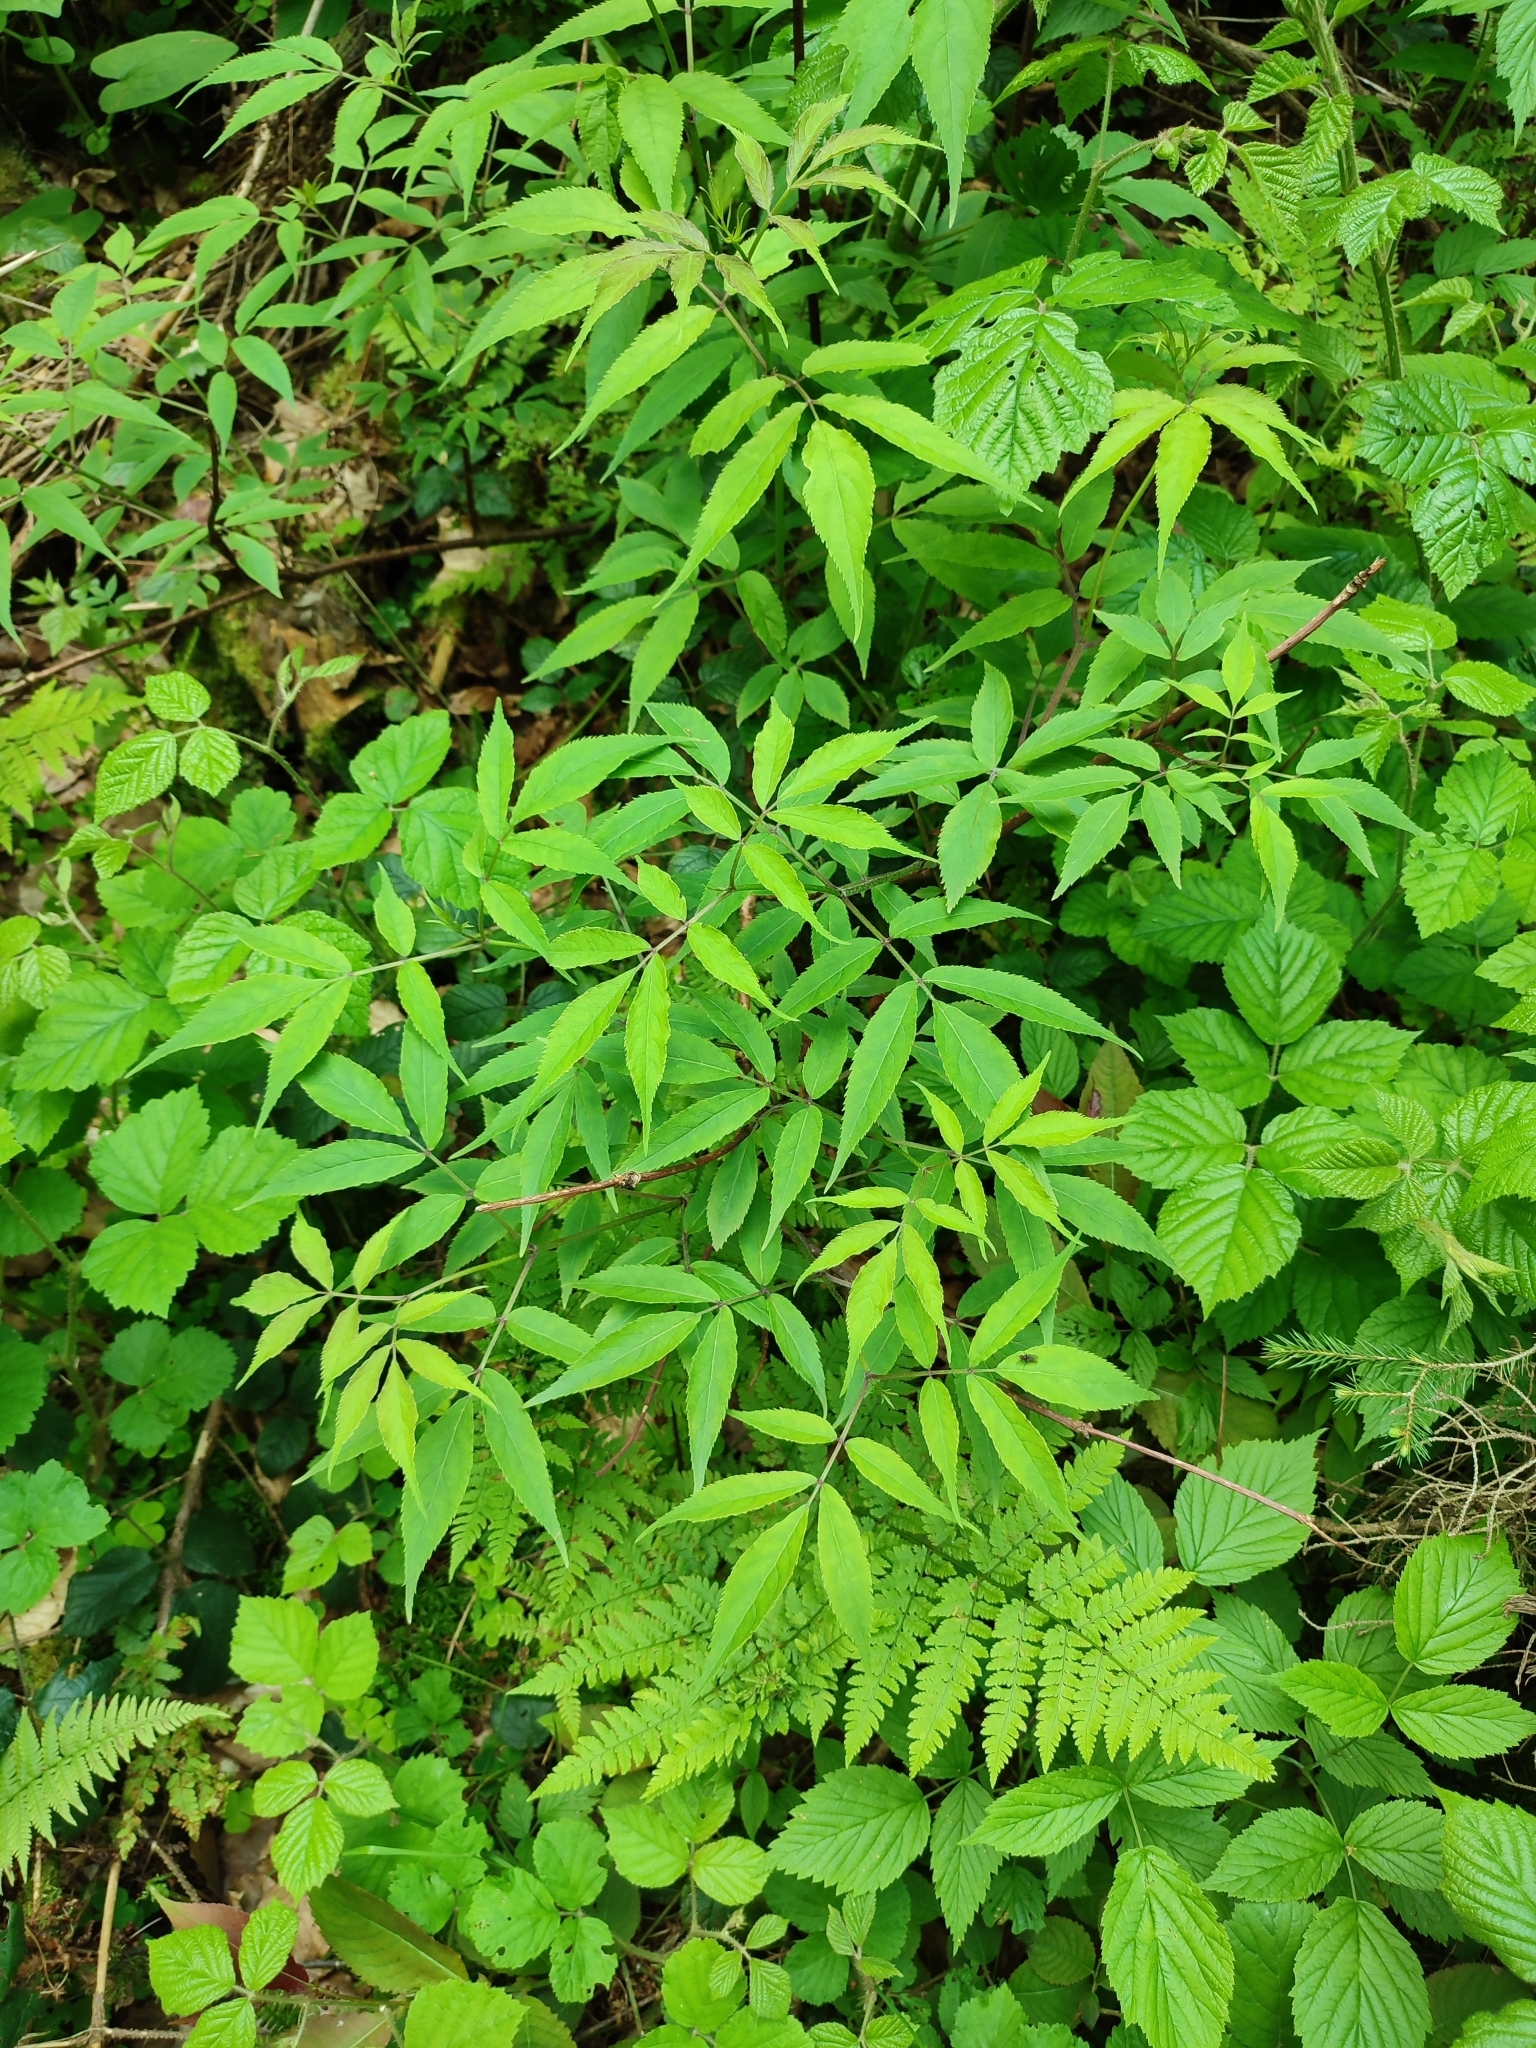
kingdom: Plantae
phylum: Tracheophyta
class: Magnoliopsida
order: Dipsacales
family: Viburnaceae
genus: Sambucus
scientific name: Sambucus racemosa
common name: Red-berried elder
